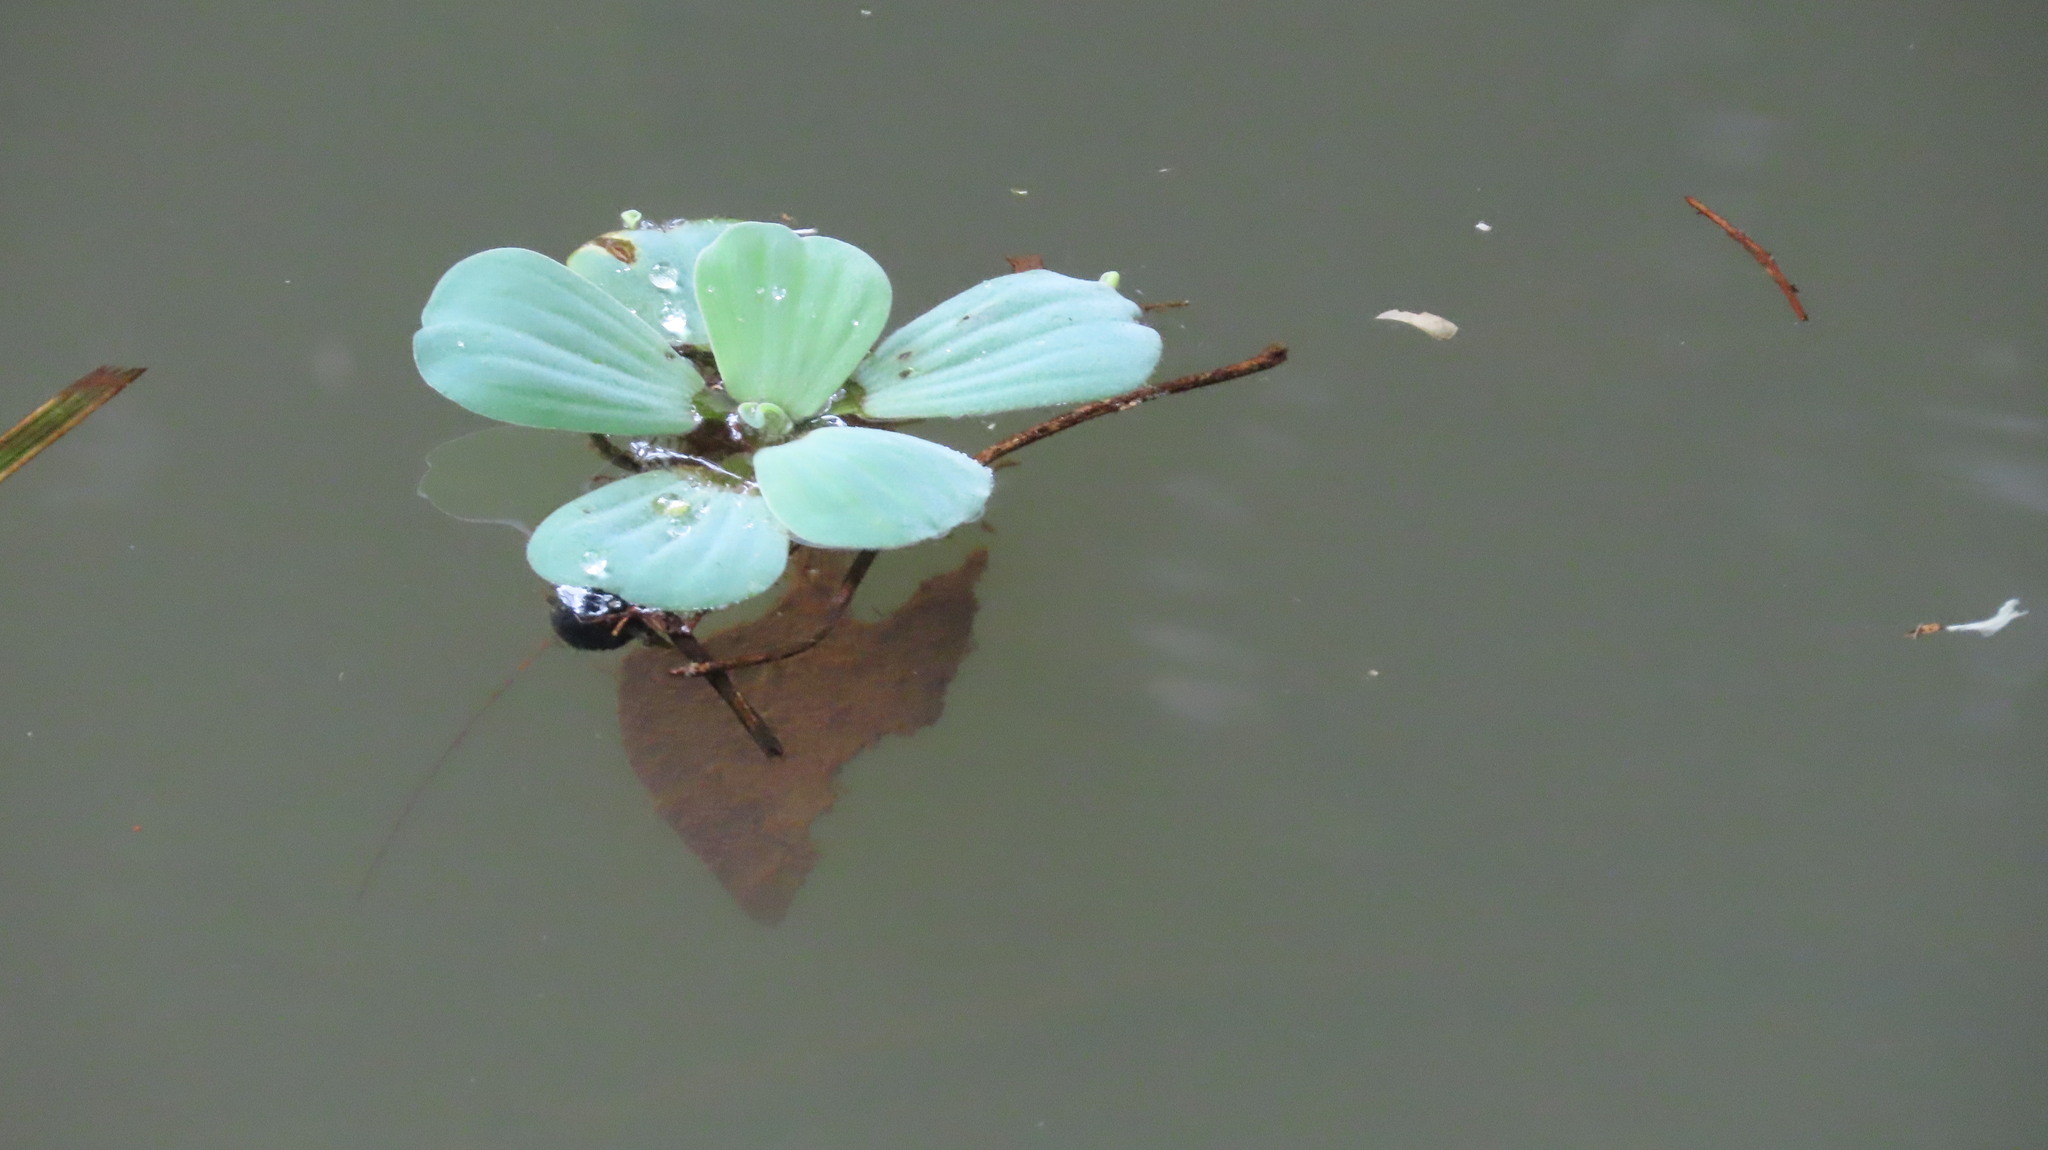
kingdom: Plantae
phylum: Tracheophyta
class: Liliopsida
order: Alismatales
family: Araceae
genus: Pistia
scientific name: Pistia stratiotes
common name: Water lettuce
